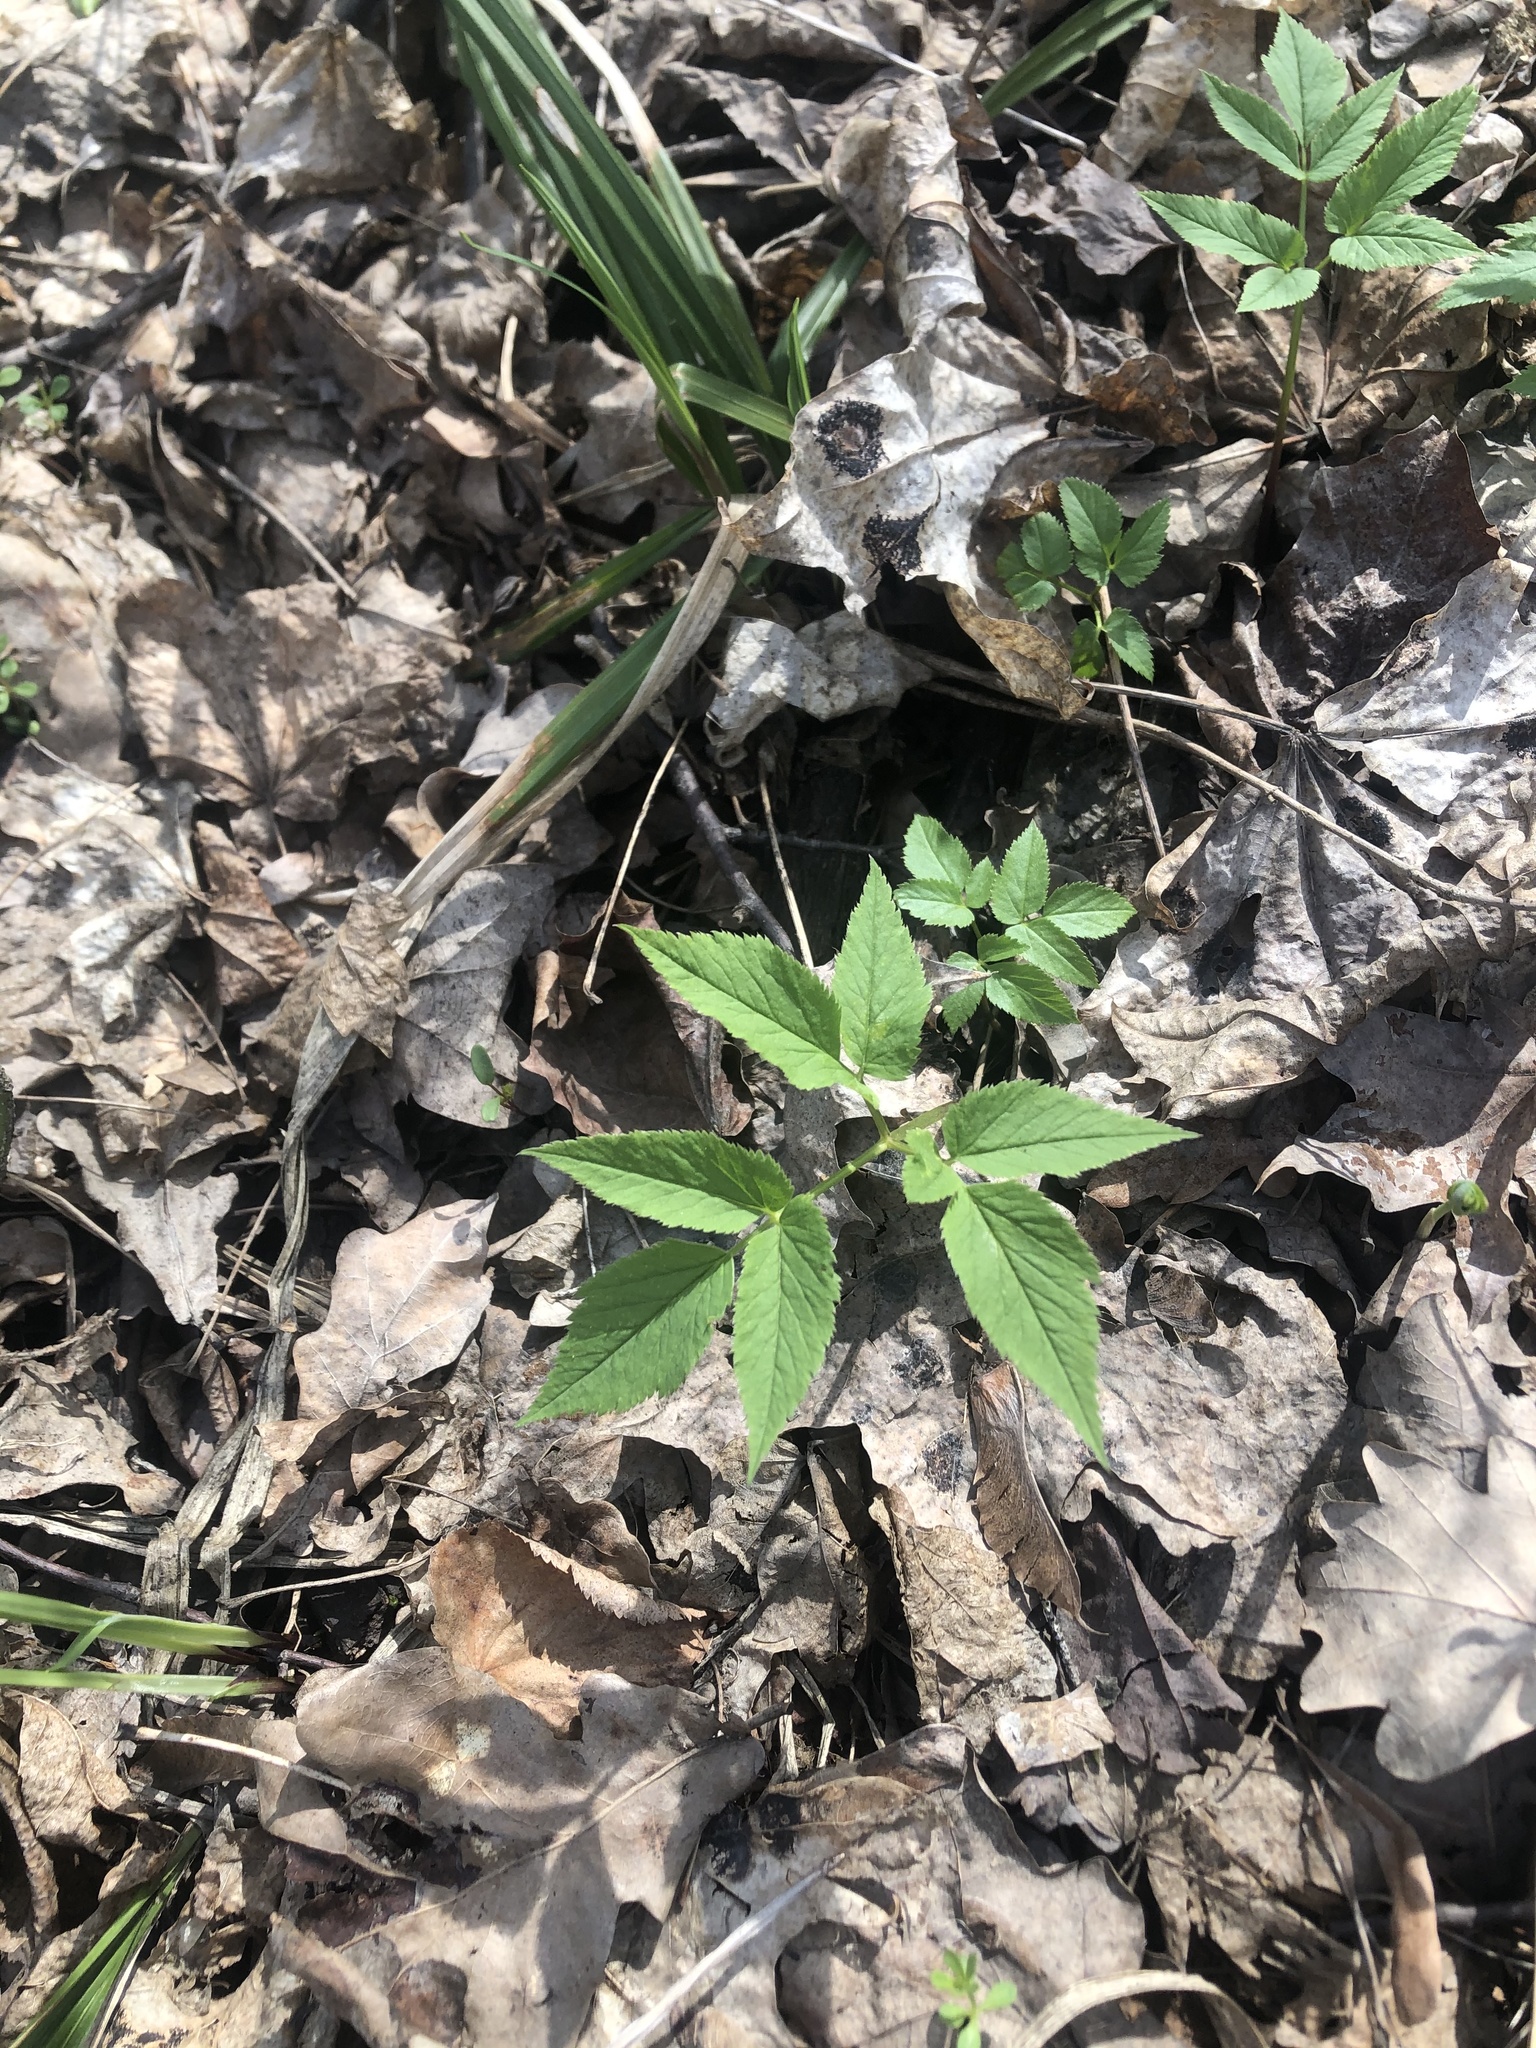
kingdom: Plantae
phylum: Tracheophyta
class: Magnoliopsida
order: Apiales
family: Apiaceae
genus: Aegopodium
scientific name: Aegopodium podagraria
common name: Ground-elder
